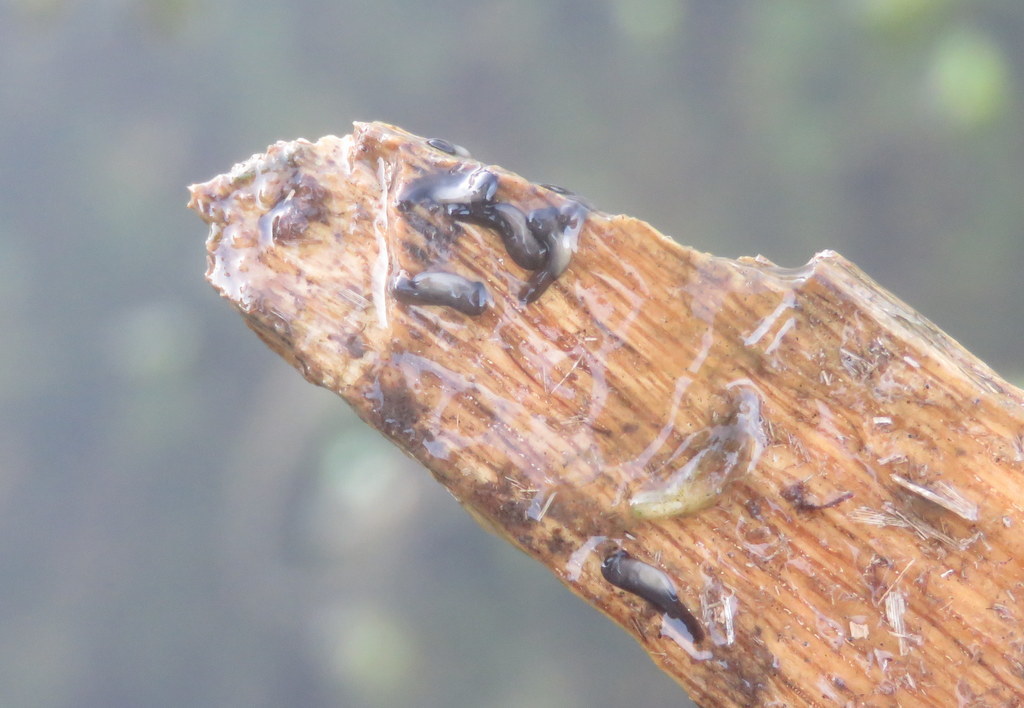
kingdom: Animalia
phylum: Chordata
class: Amphibia
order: Anura
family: Bufonidae
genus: Rhinella
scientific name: Rhinella arenarum
